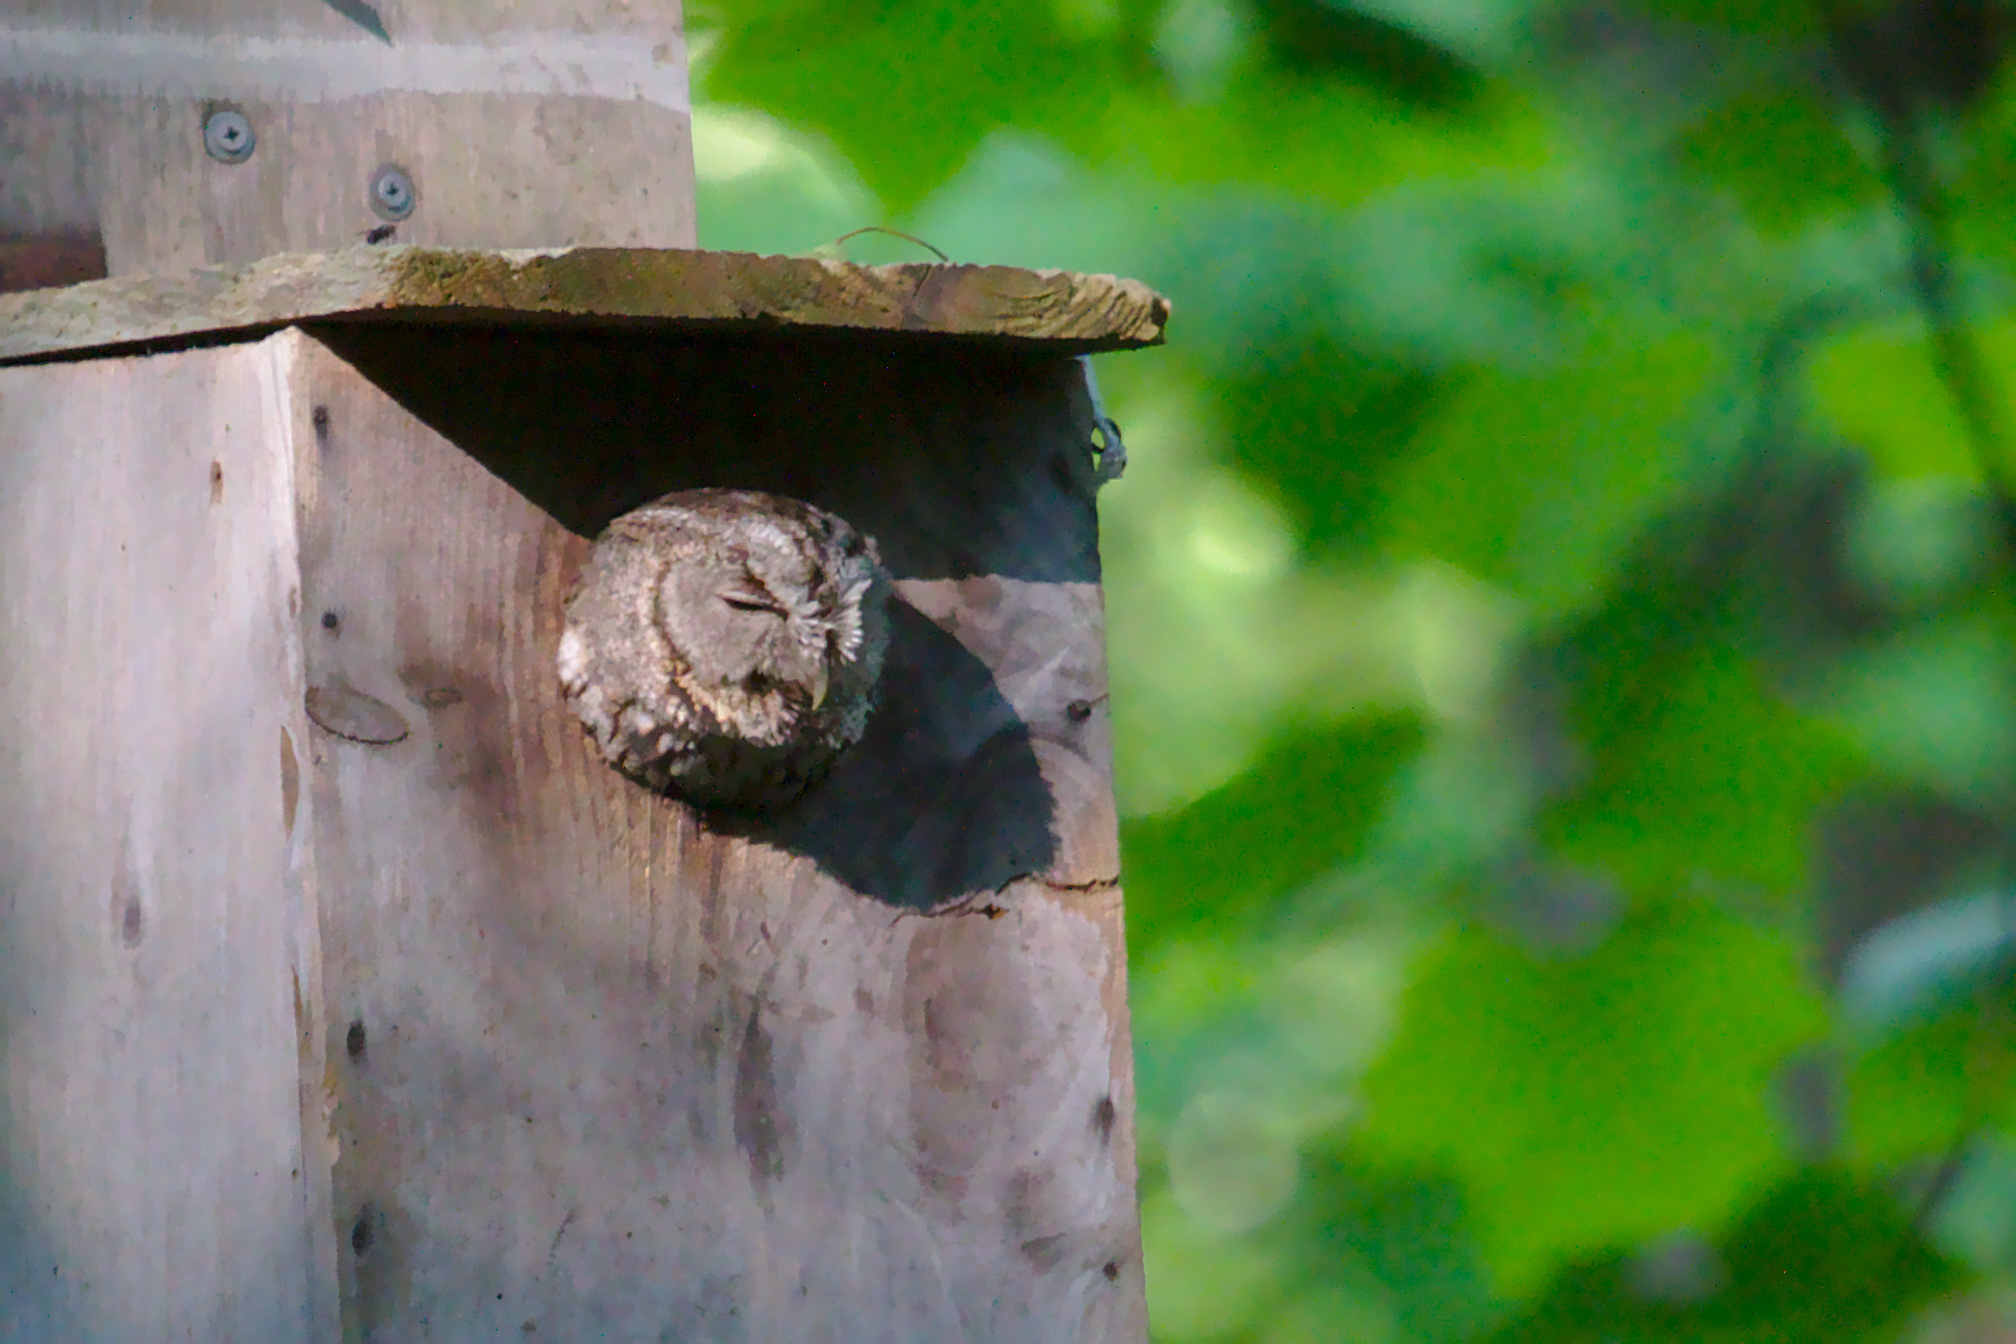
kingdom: Animalia
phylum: Chordata
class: Aves
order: Strigiformes
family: Strigidae
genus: Megascops
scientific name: Megascops asio
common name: Eastern screech-owl
